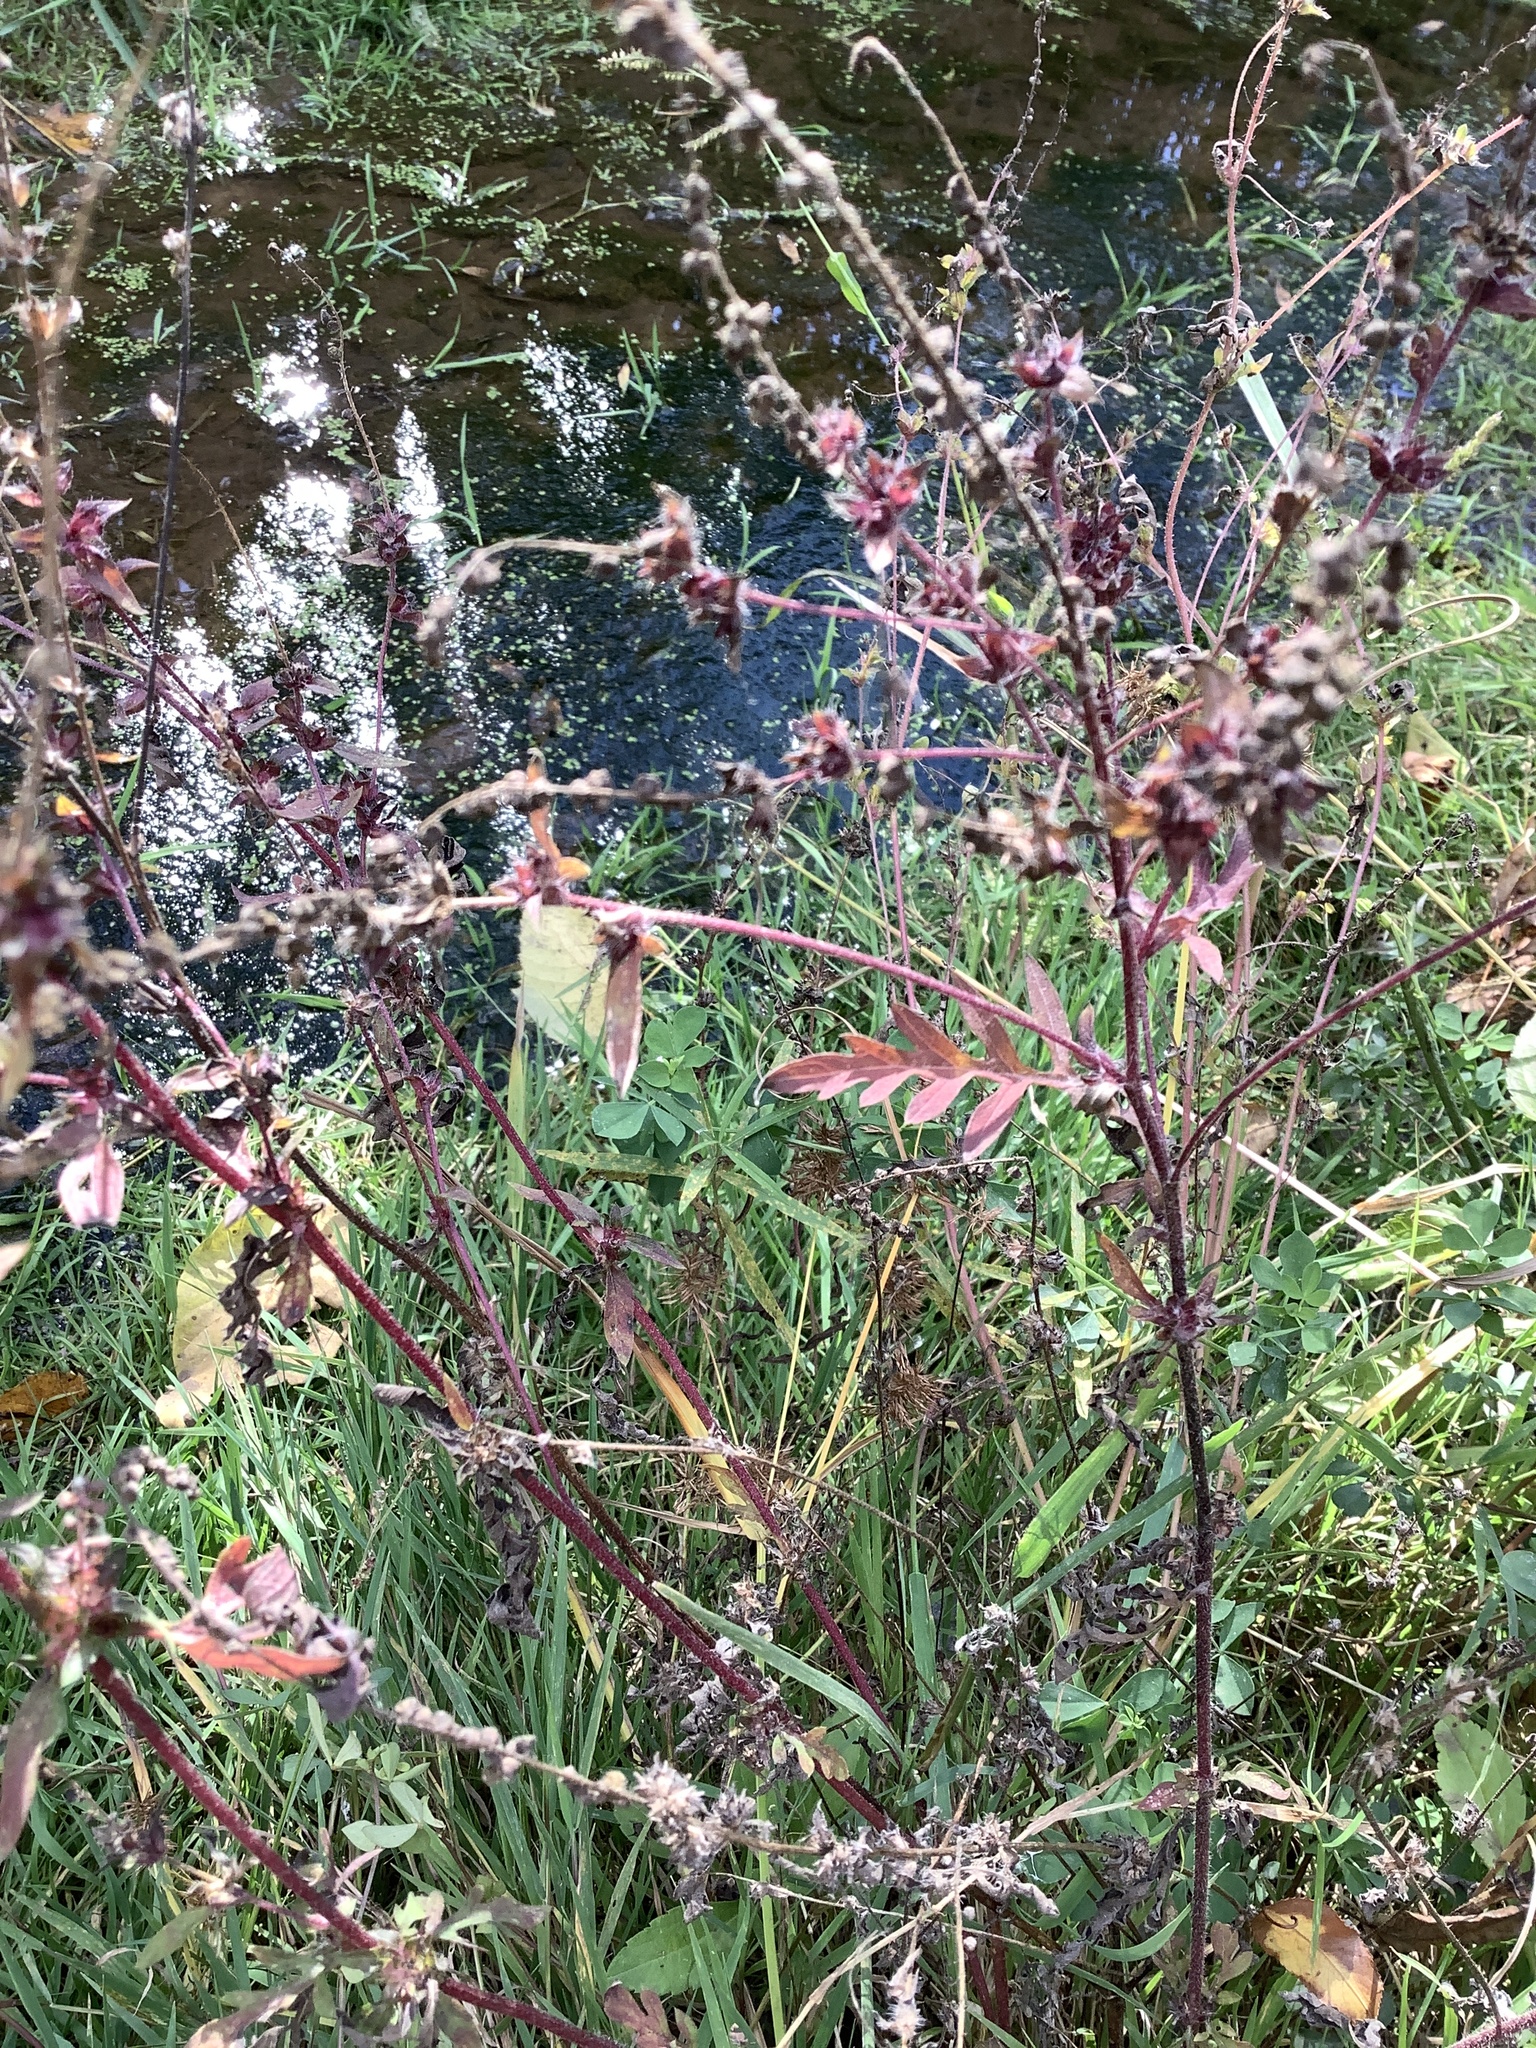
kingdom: Plantae
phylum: Tracheophyta
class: Magnoliopsida
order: Asterales
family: Asteraceae
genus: Ambrosia
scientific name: Ambrosia artemisiifolia
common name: Annual ragweed
